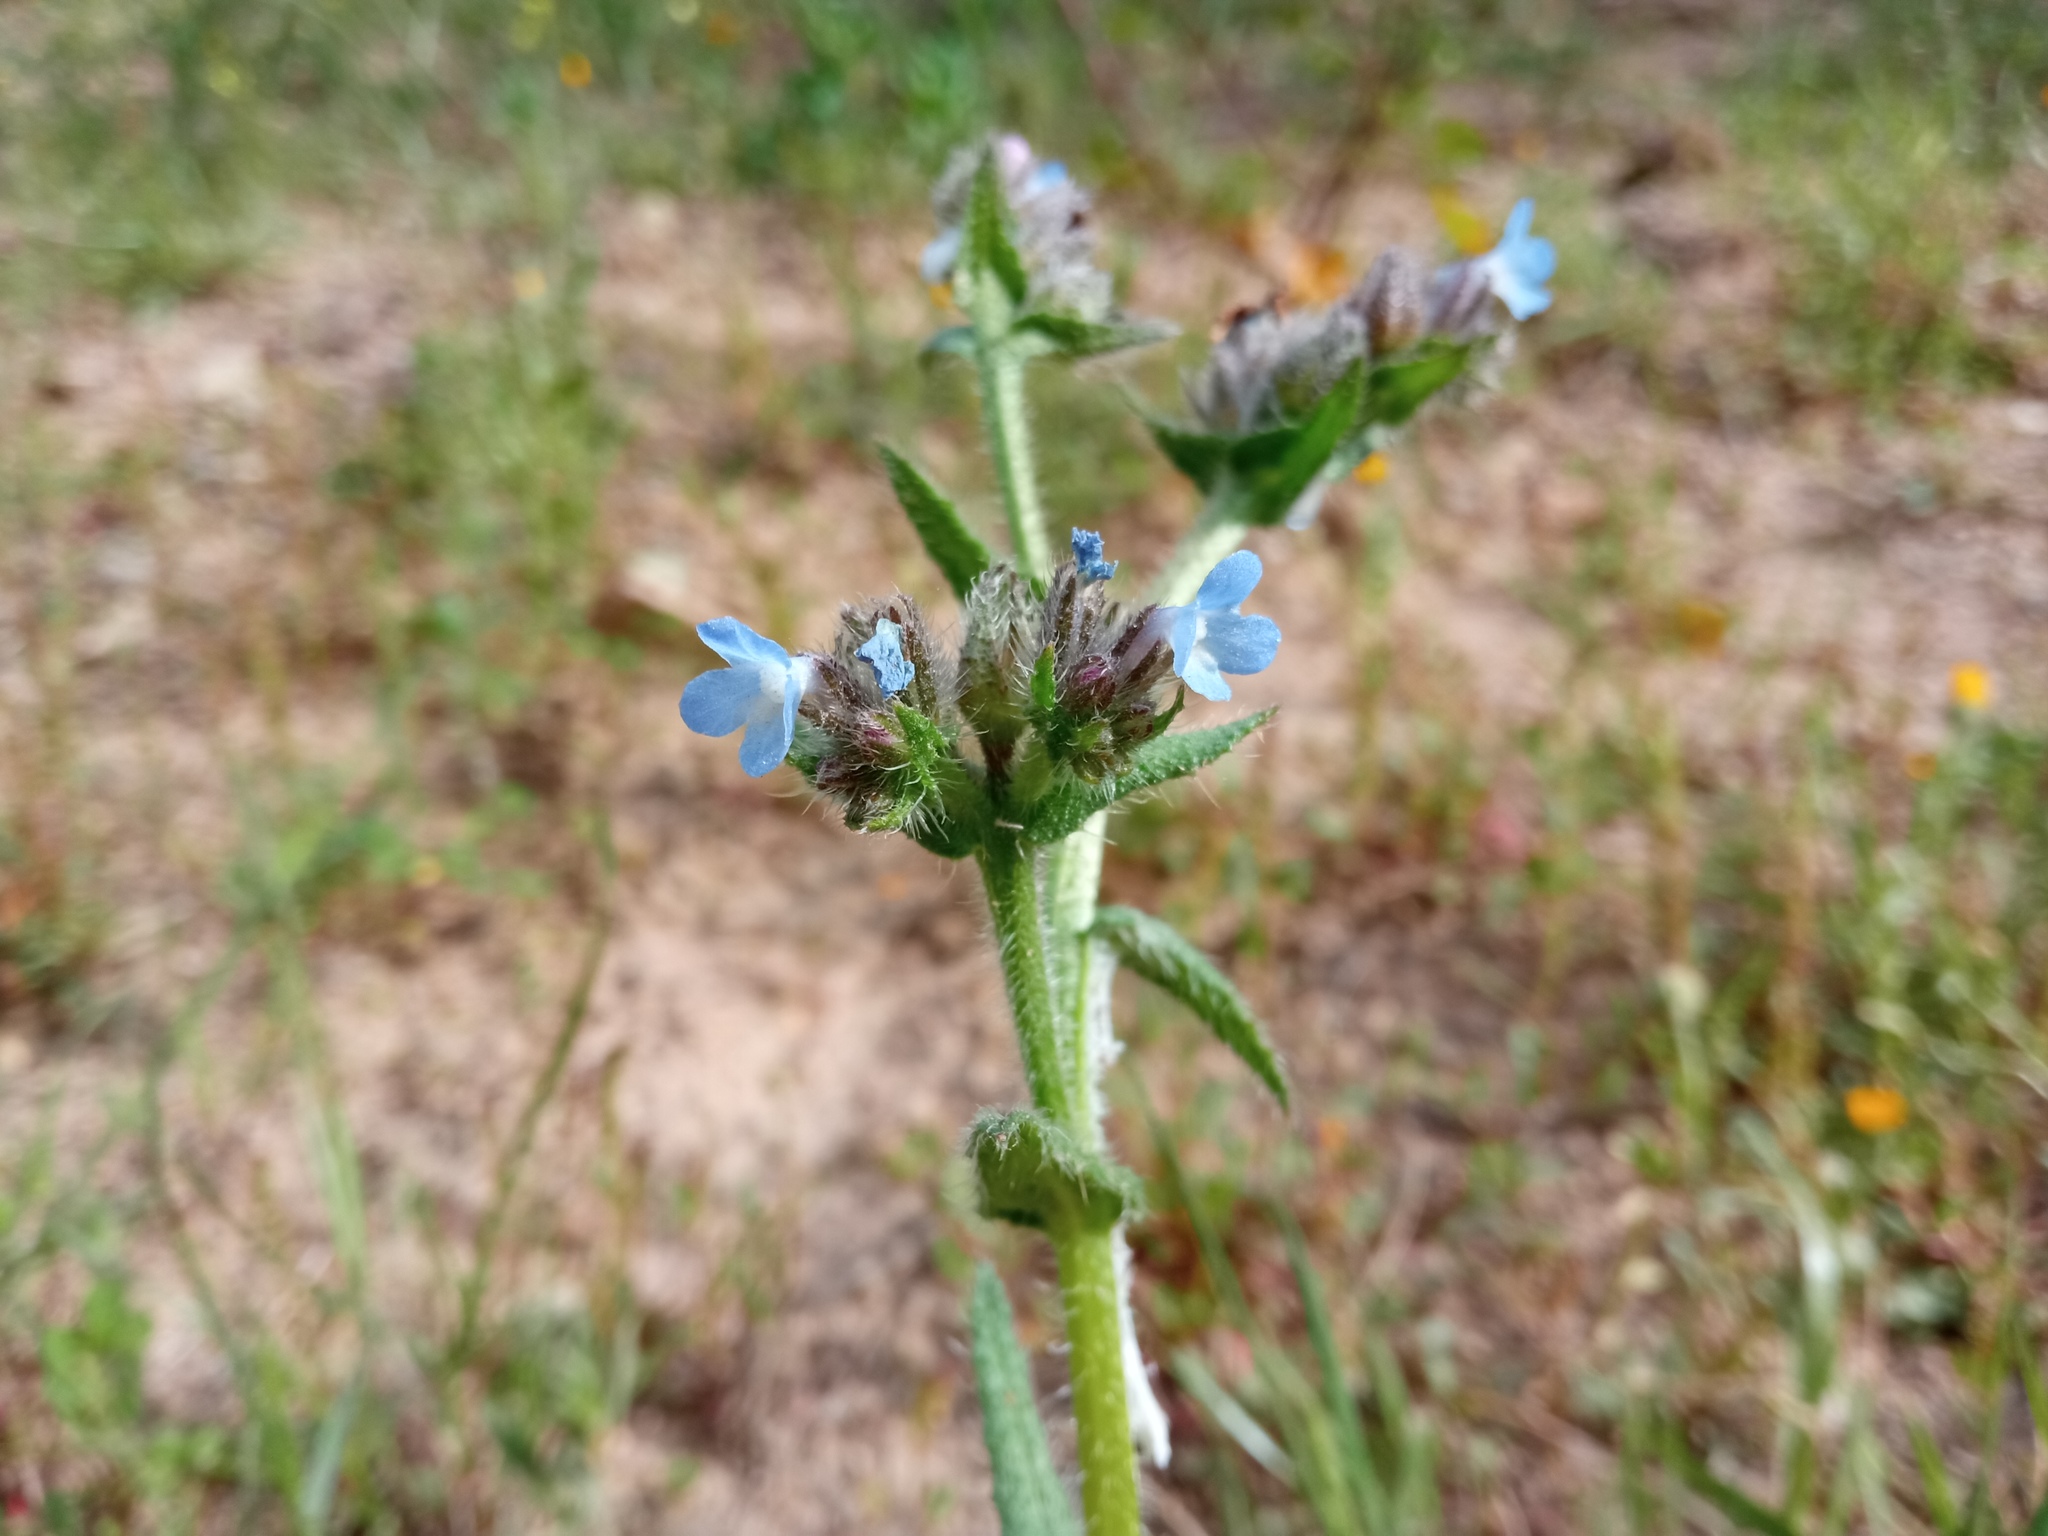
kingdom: Plantae
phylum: Tracheophyta
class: Magnoliopsida
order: Boraginales
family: Boraginaceae
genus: Lycopsis
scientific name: Lycopsis arvensis
